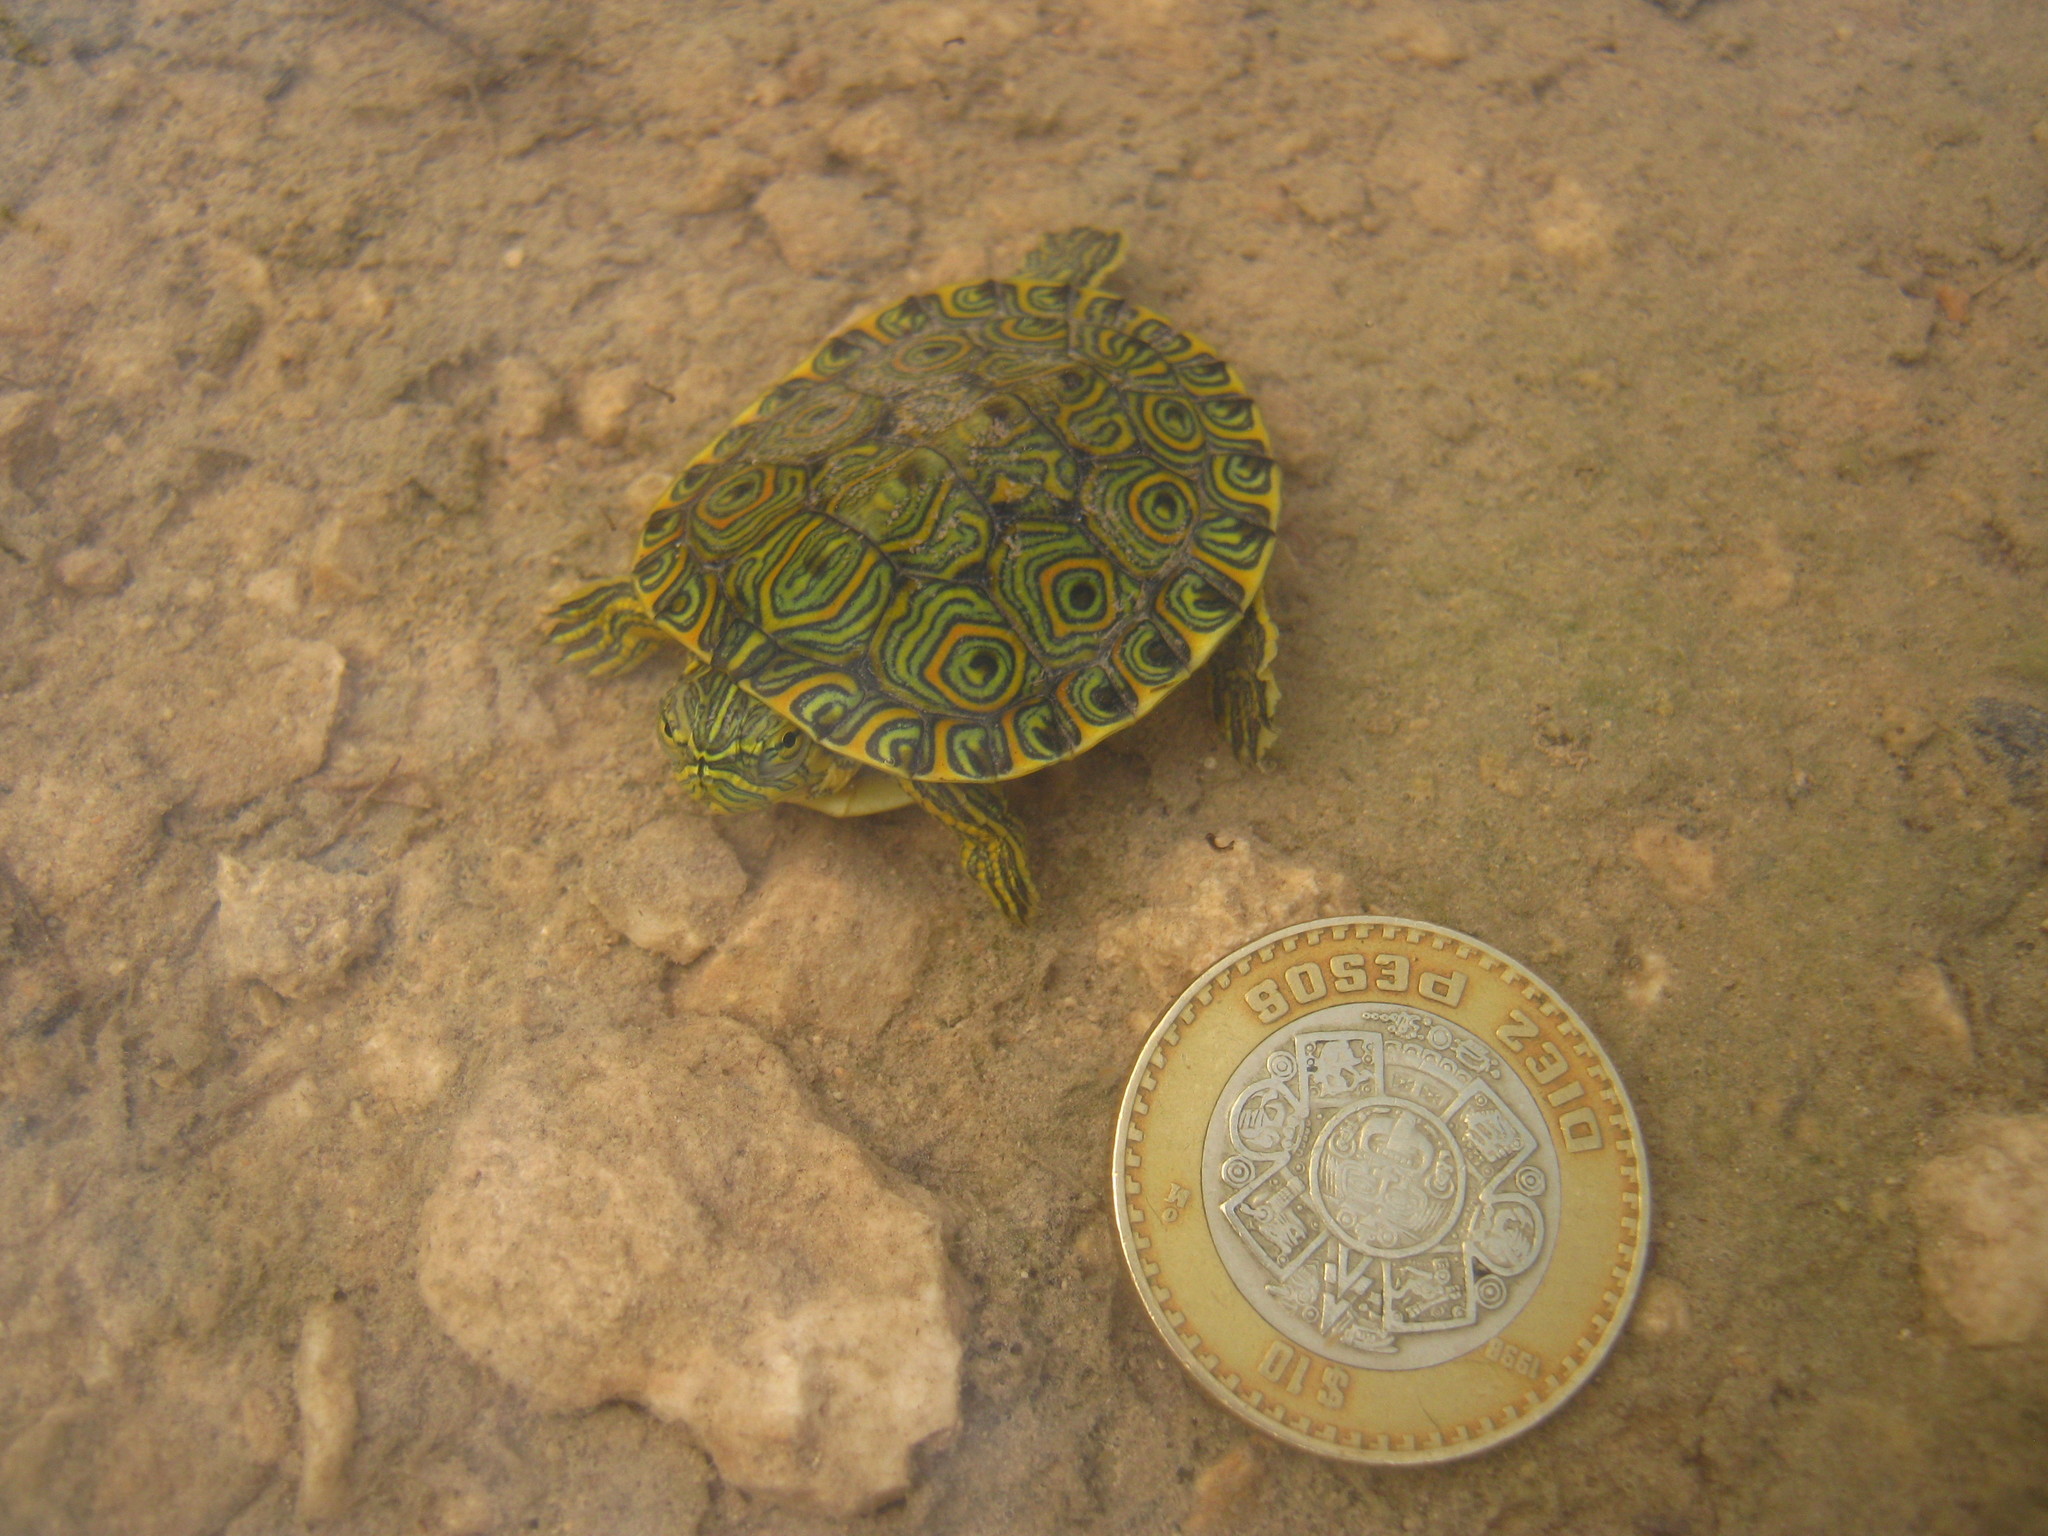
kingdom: Animalia
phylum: Chordata
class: Testudines
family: Emydidae
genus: Trachemys
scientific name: Trachemys venusta
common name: Mesoamerican slider
